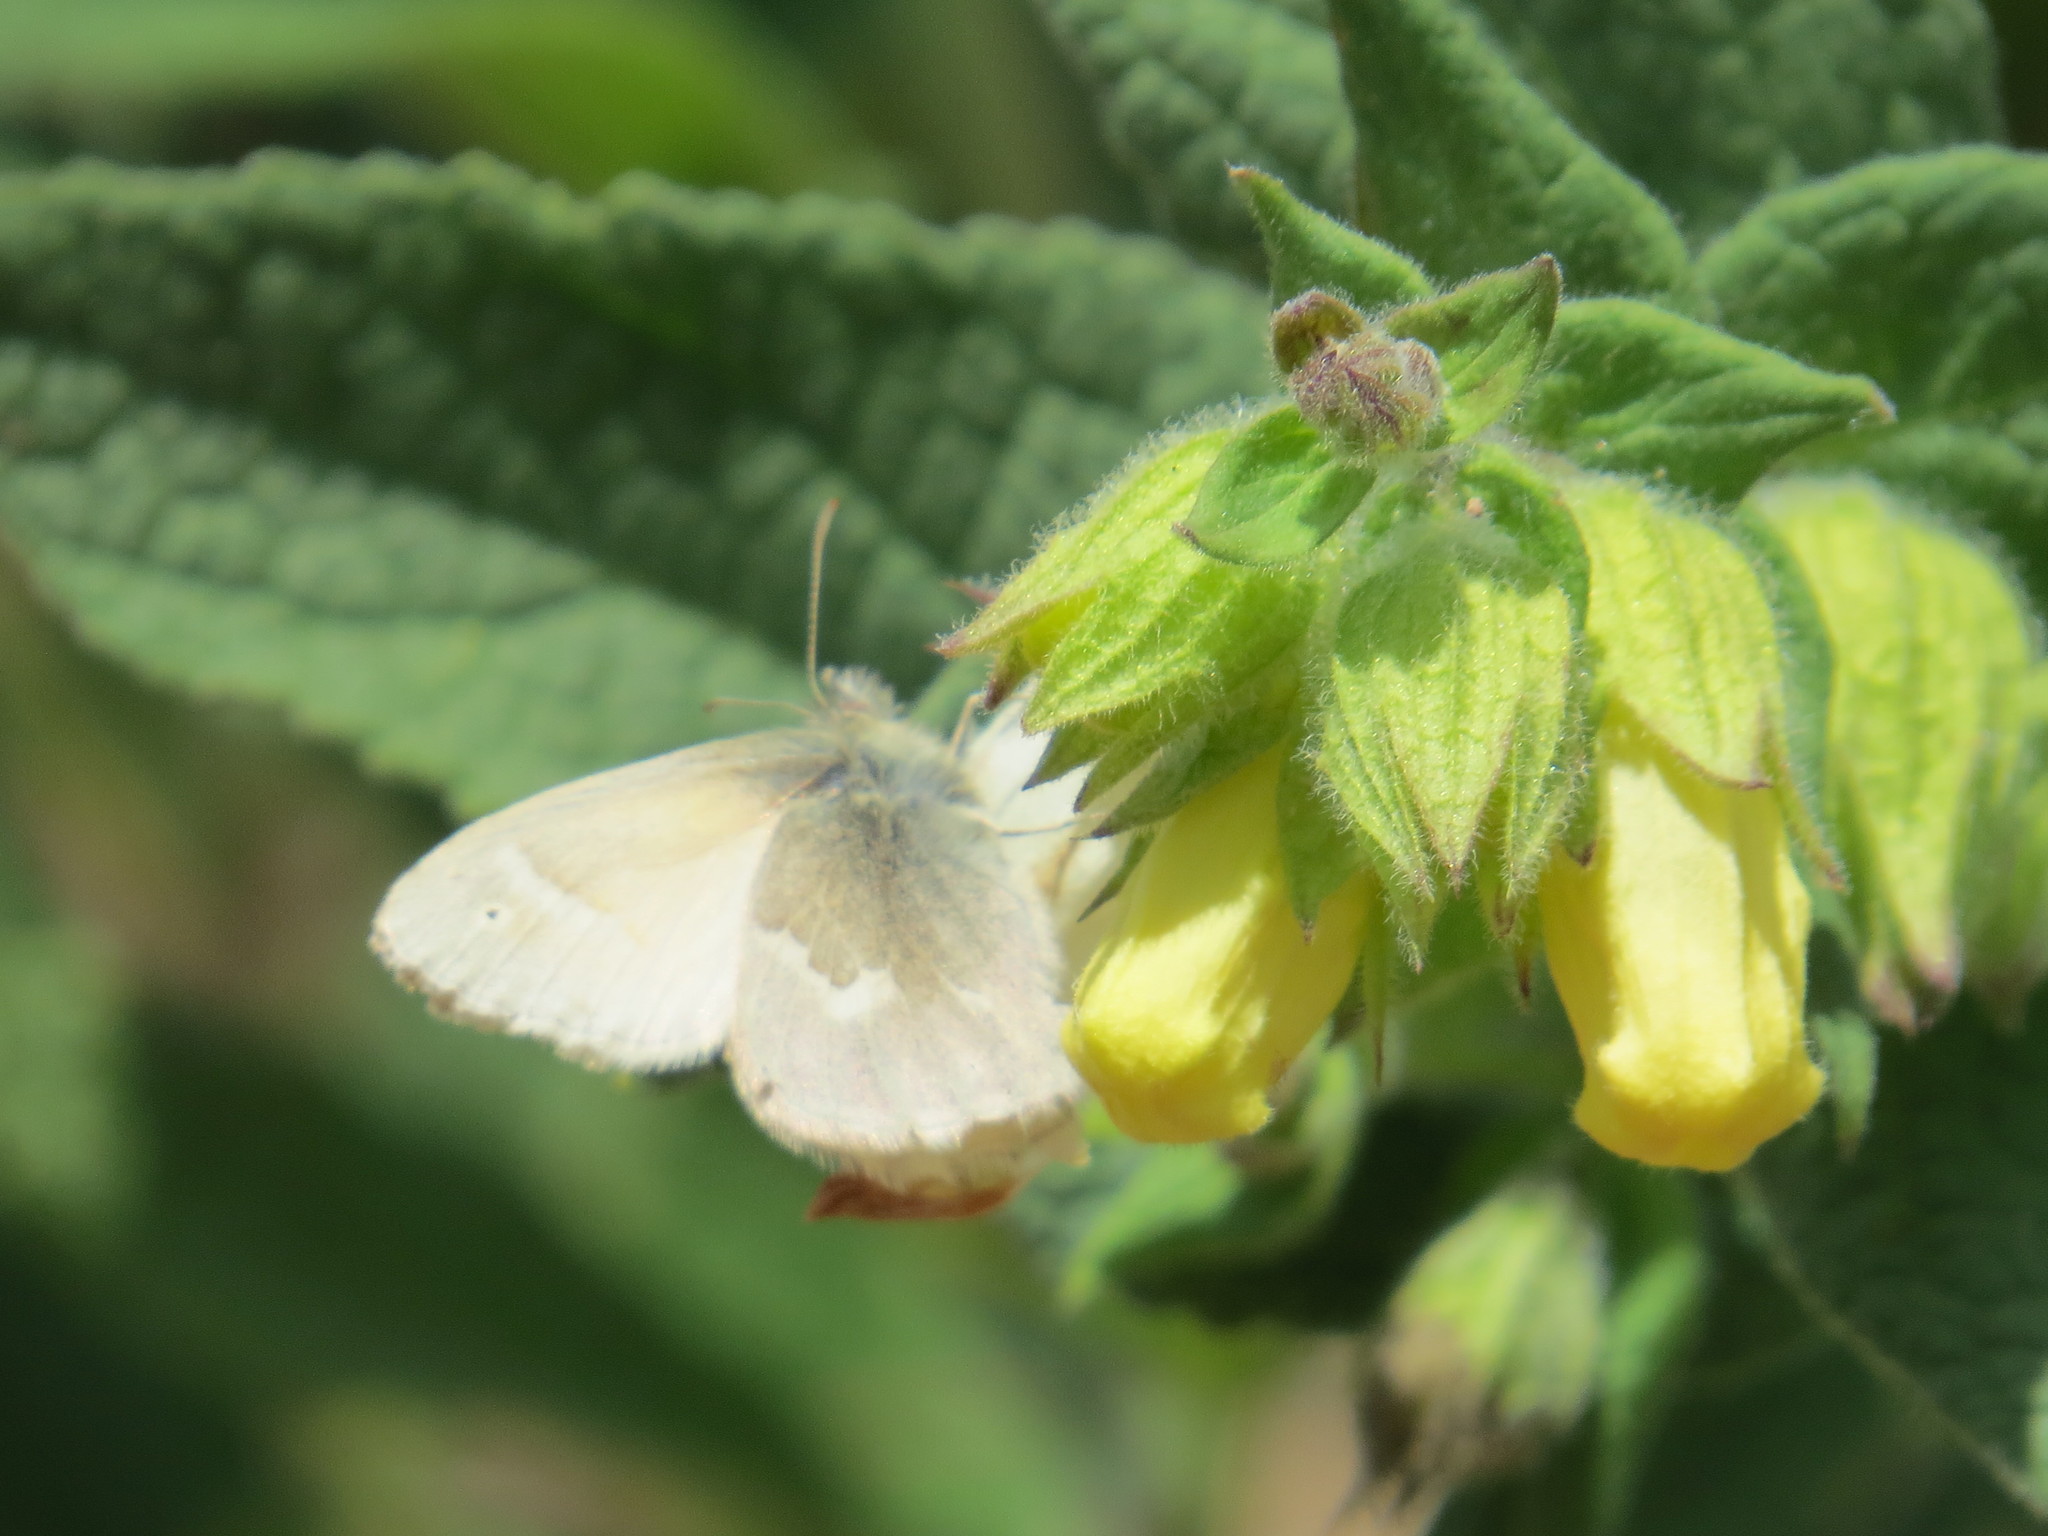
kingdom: Animalia
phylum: Arthropoda
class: Insecta
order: Lepidoptera
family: Nymphalidae
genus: Coenonympha
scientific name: Coenonympha california
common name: Common ringlet
